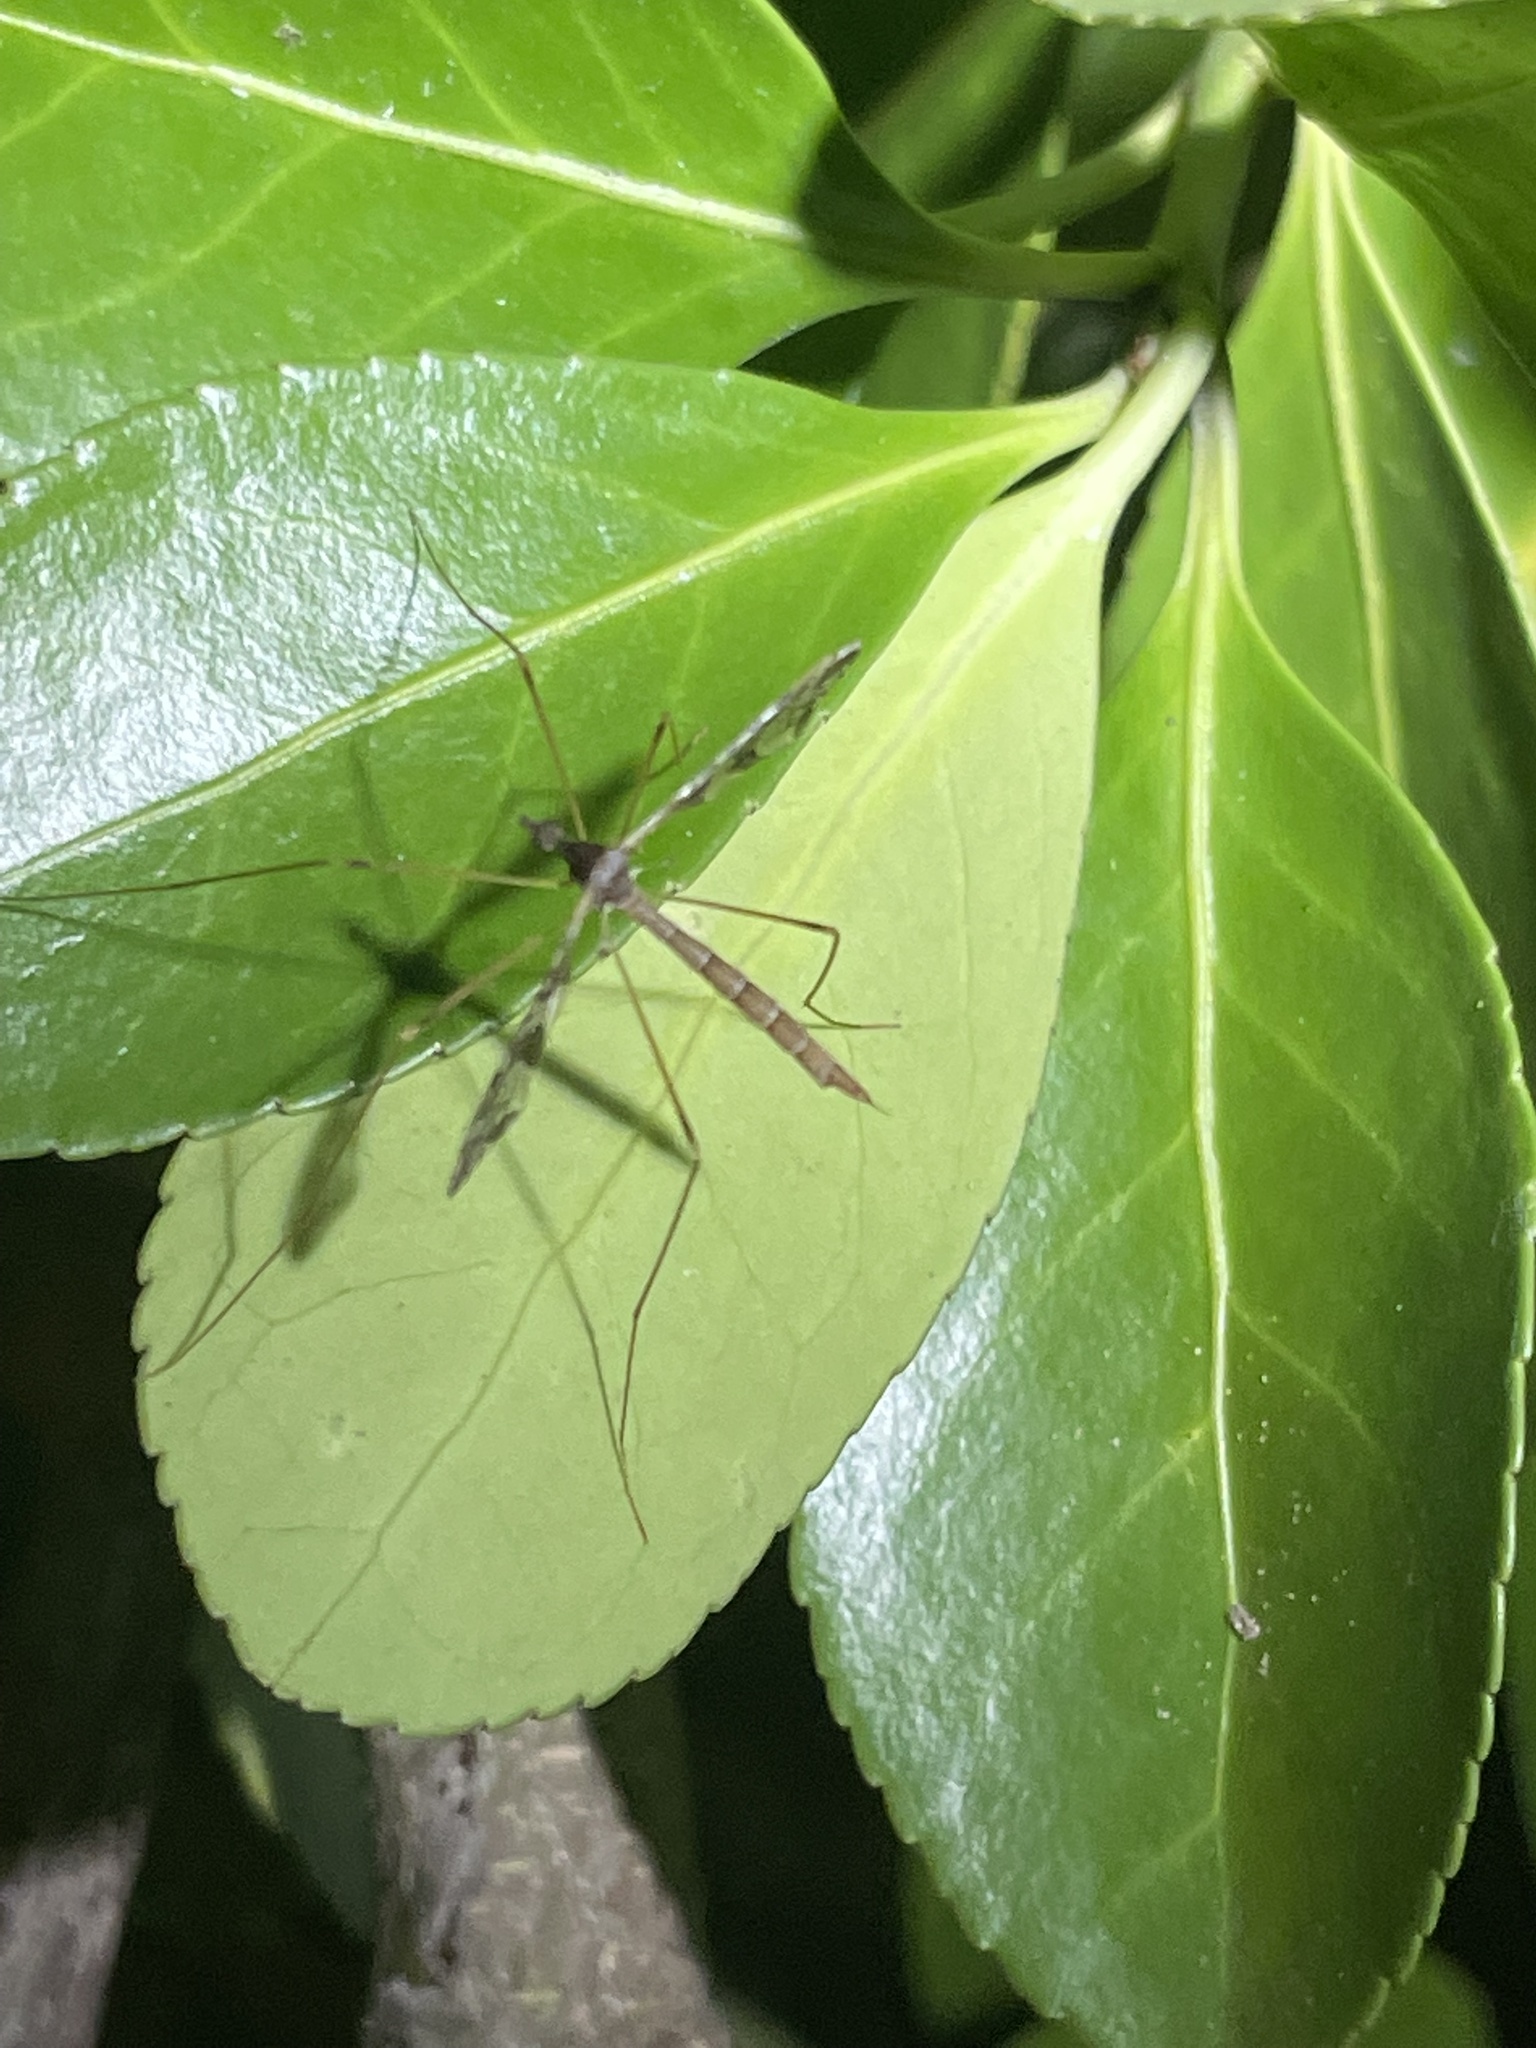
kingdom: Animalia
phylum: Arthropoda
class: Insecta
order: Diptera
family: Limoniidae
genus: Epiphragma
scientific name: Epiphragma solatrix
